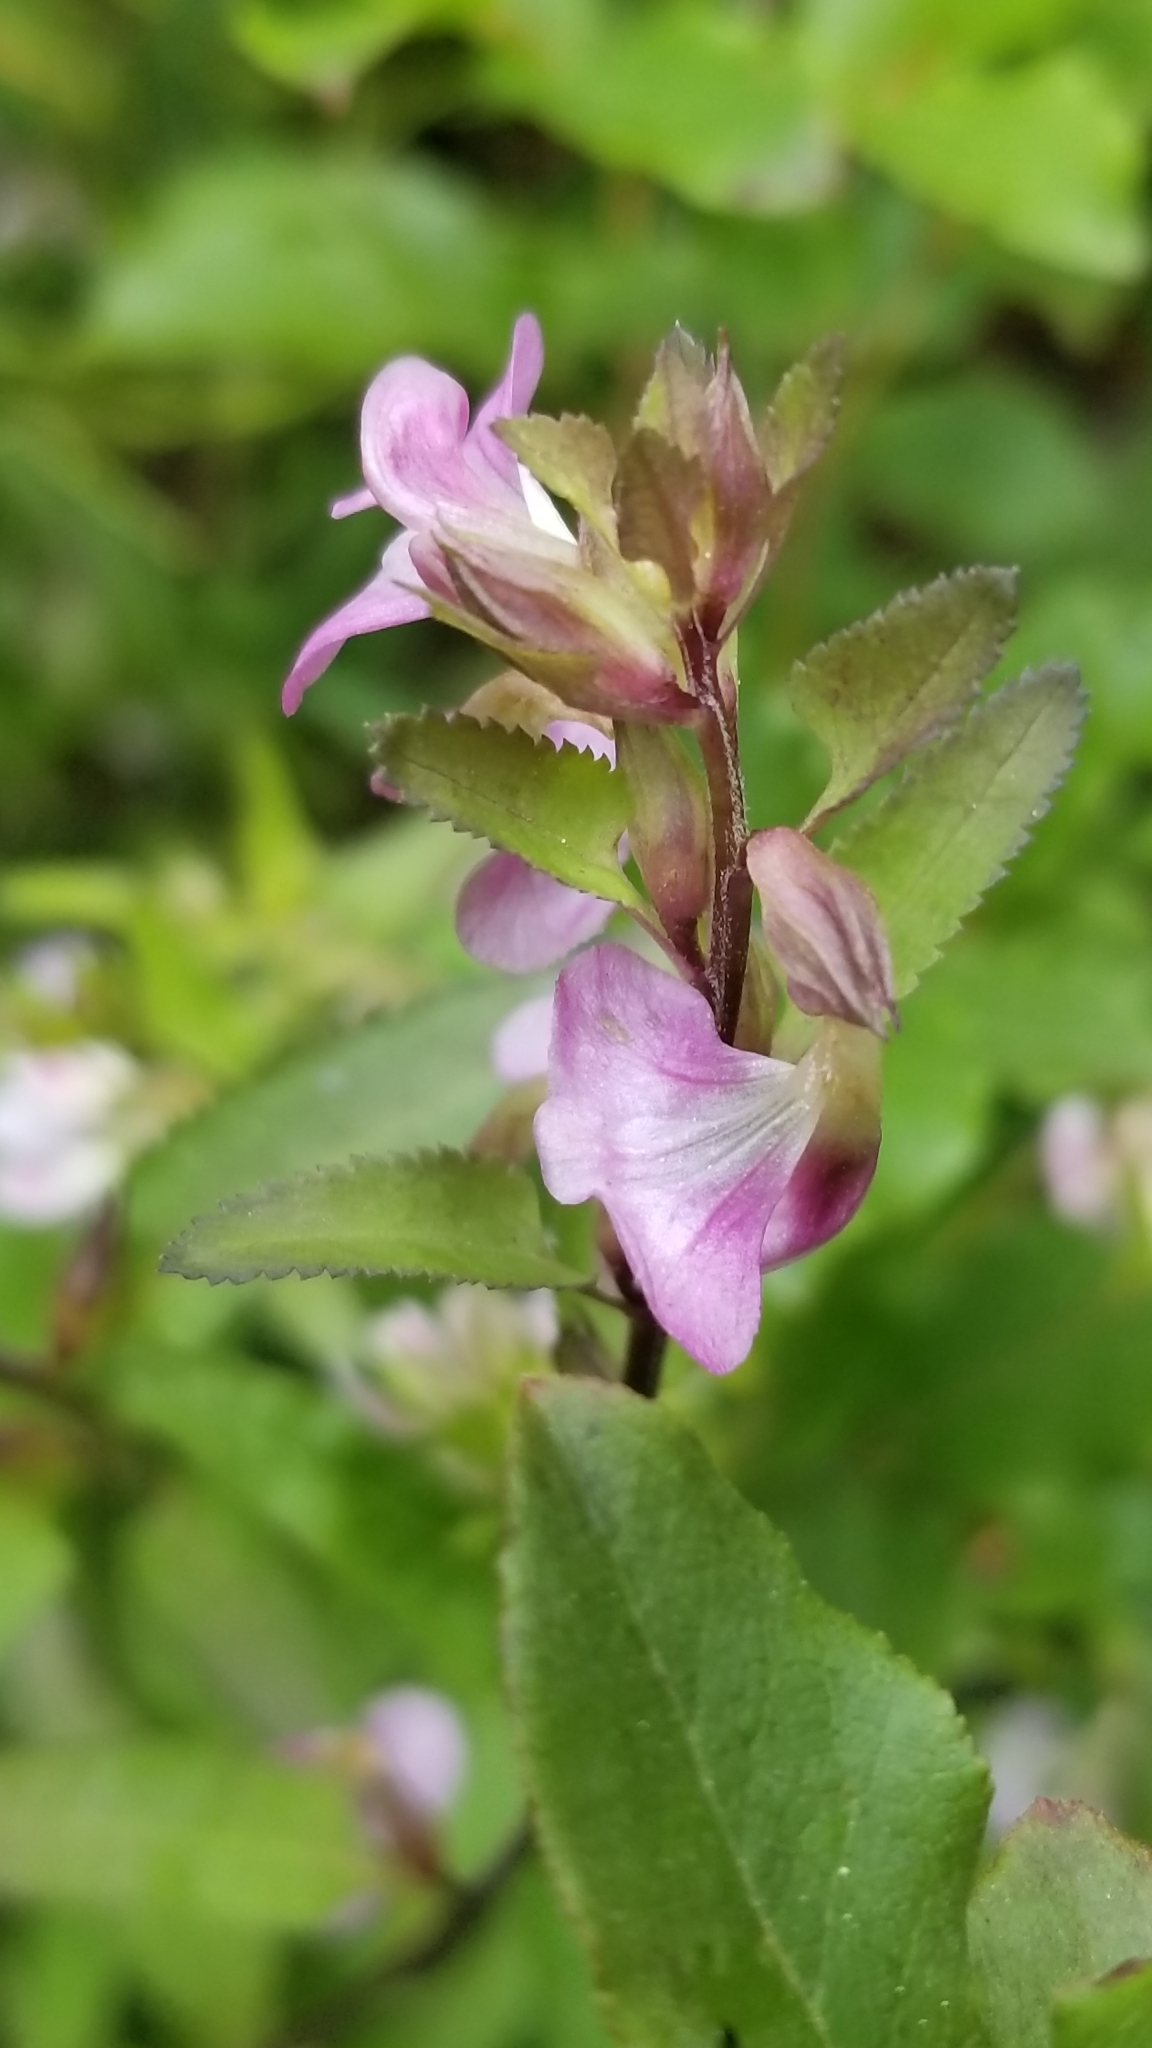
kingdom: Plantae
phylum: Tracheophyta
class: Magnoliopsida
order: Lamiales
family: Orobanchaceae
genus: Pedicularis
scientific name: Pedicularis racemosa
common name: Leafy lousewort
